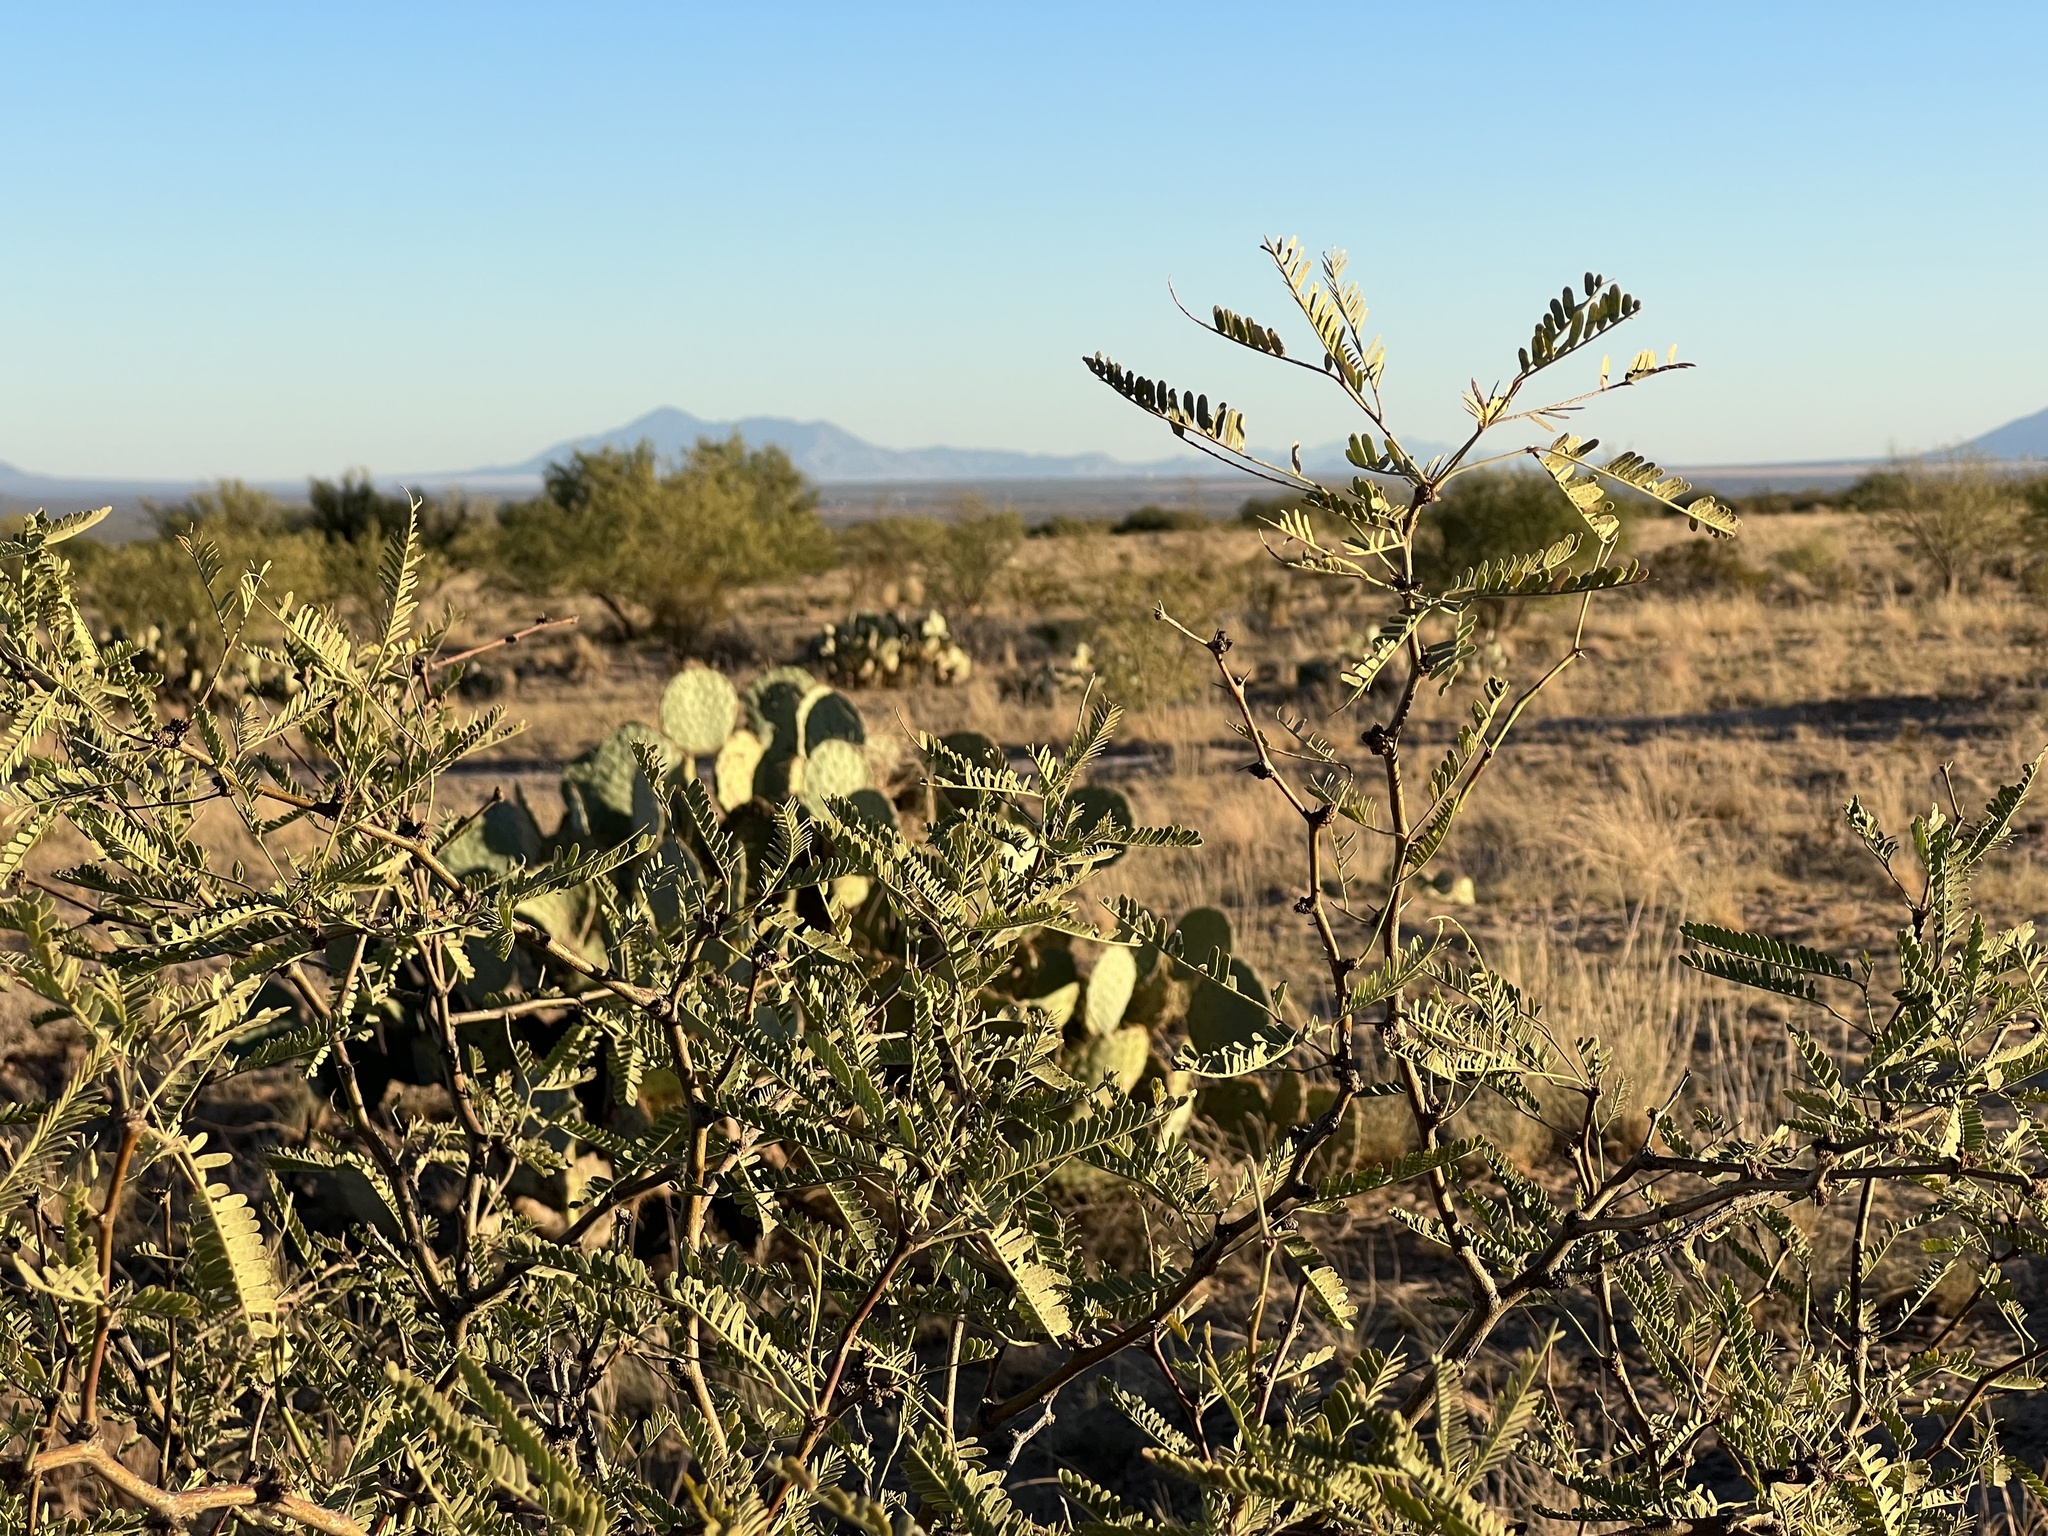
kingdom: Plantae
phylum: Tracheophyta
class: Magnoliopsida
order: Fabales
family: Fabaceae
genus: Prosopis
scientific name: Prosopis velutina
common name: Velvet mesquite
